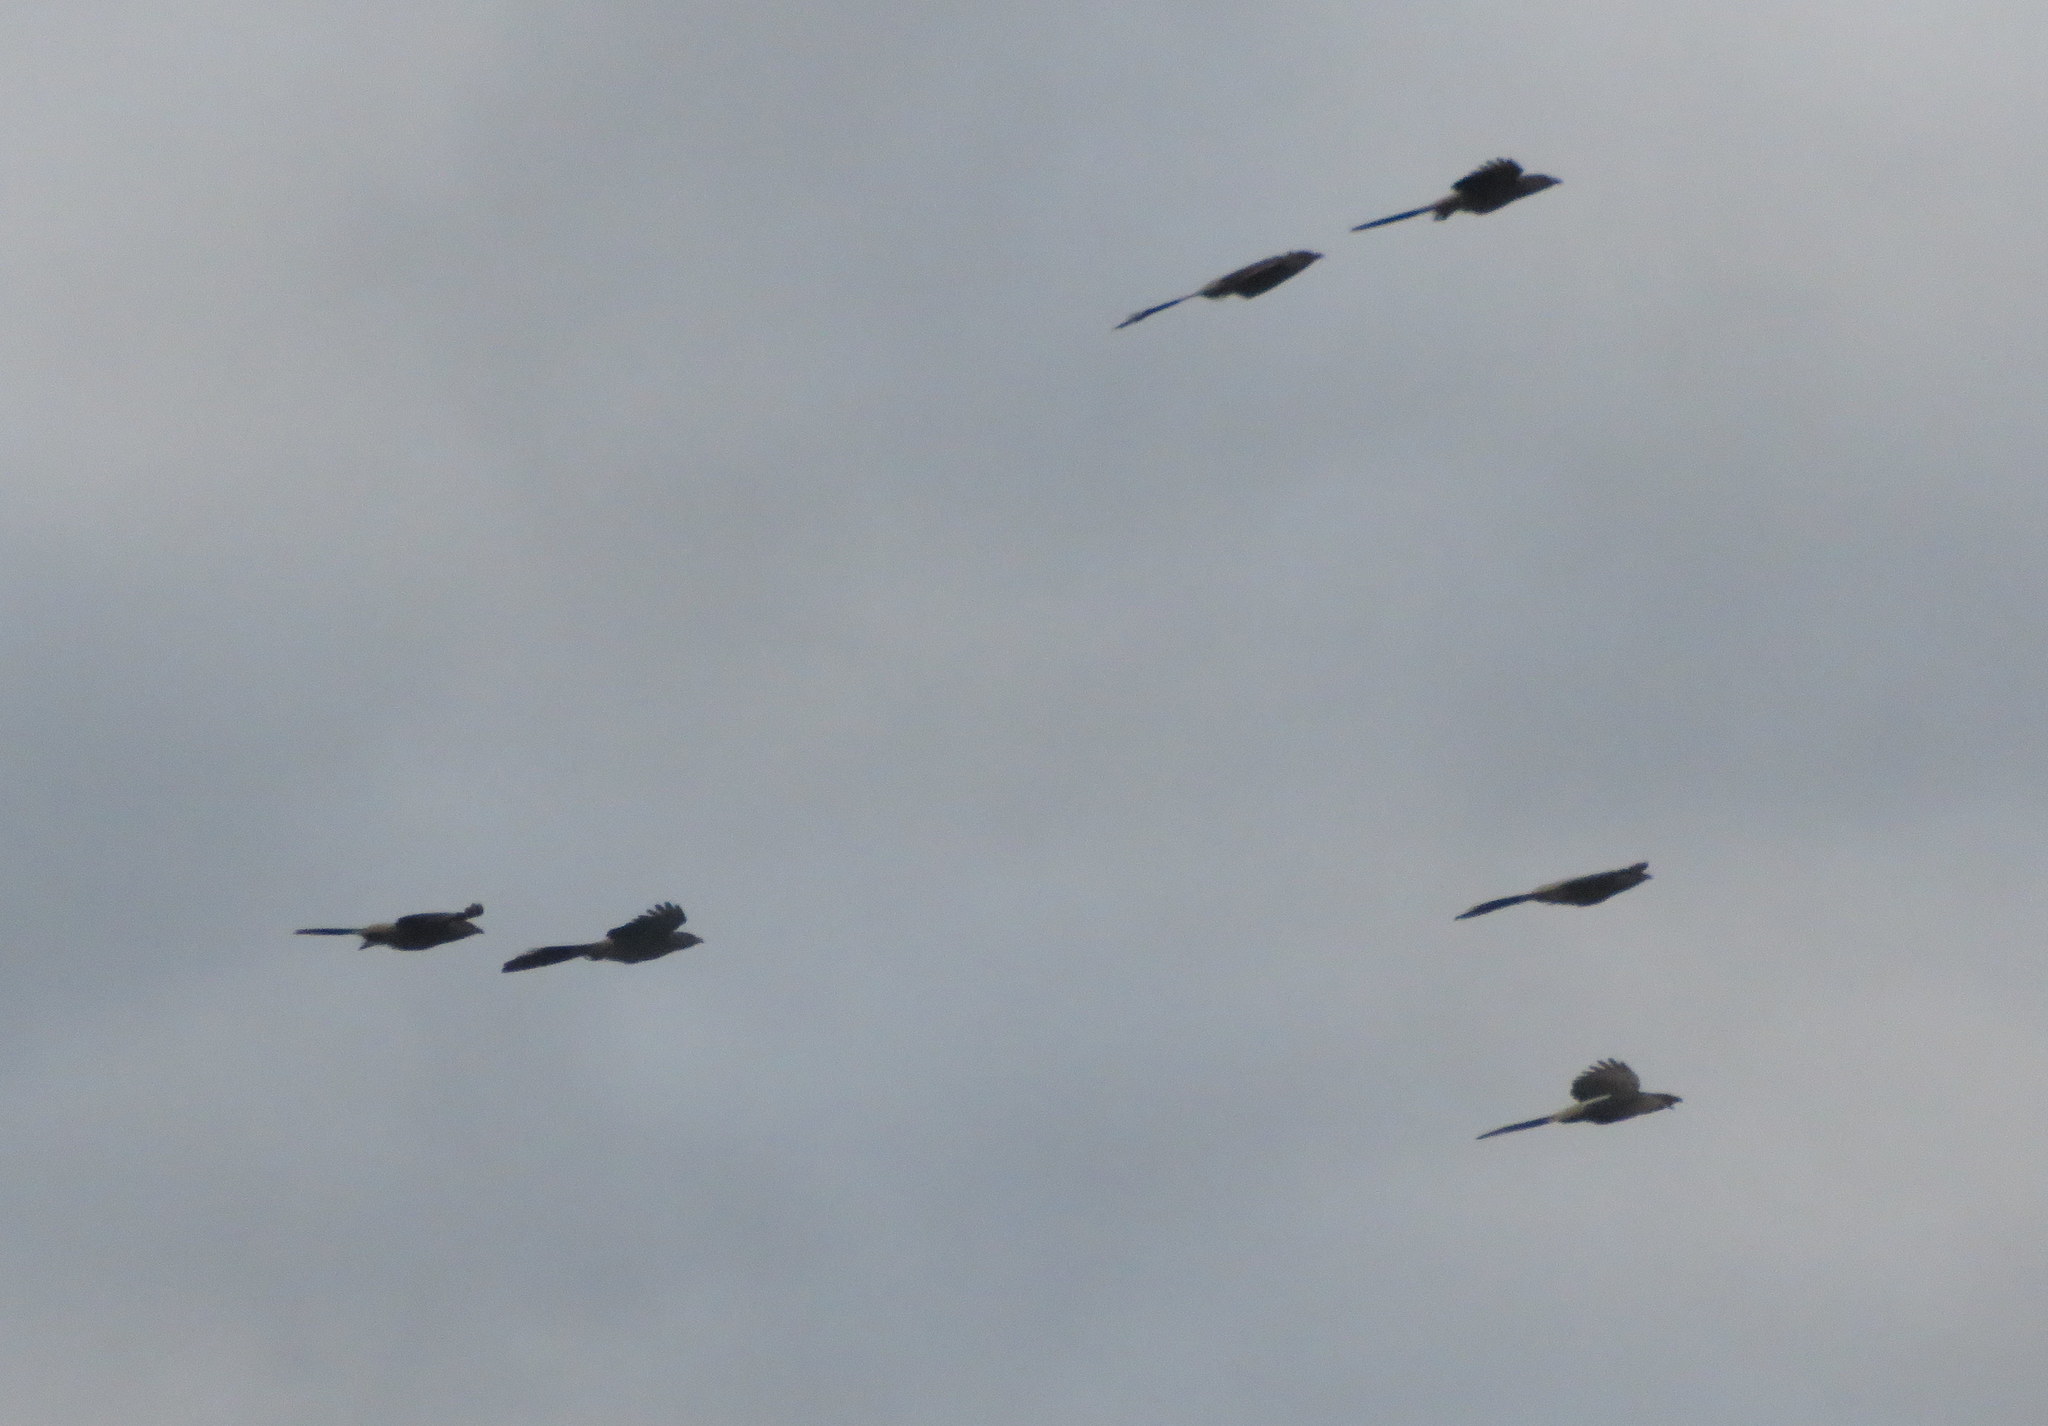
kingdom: Animalia
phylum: Chordata
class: Aves
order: Cuculiformes
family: Cuculidae
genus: Guira
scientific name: Guira guira
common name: Guira cuckoo
